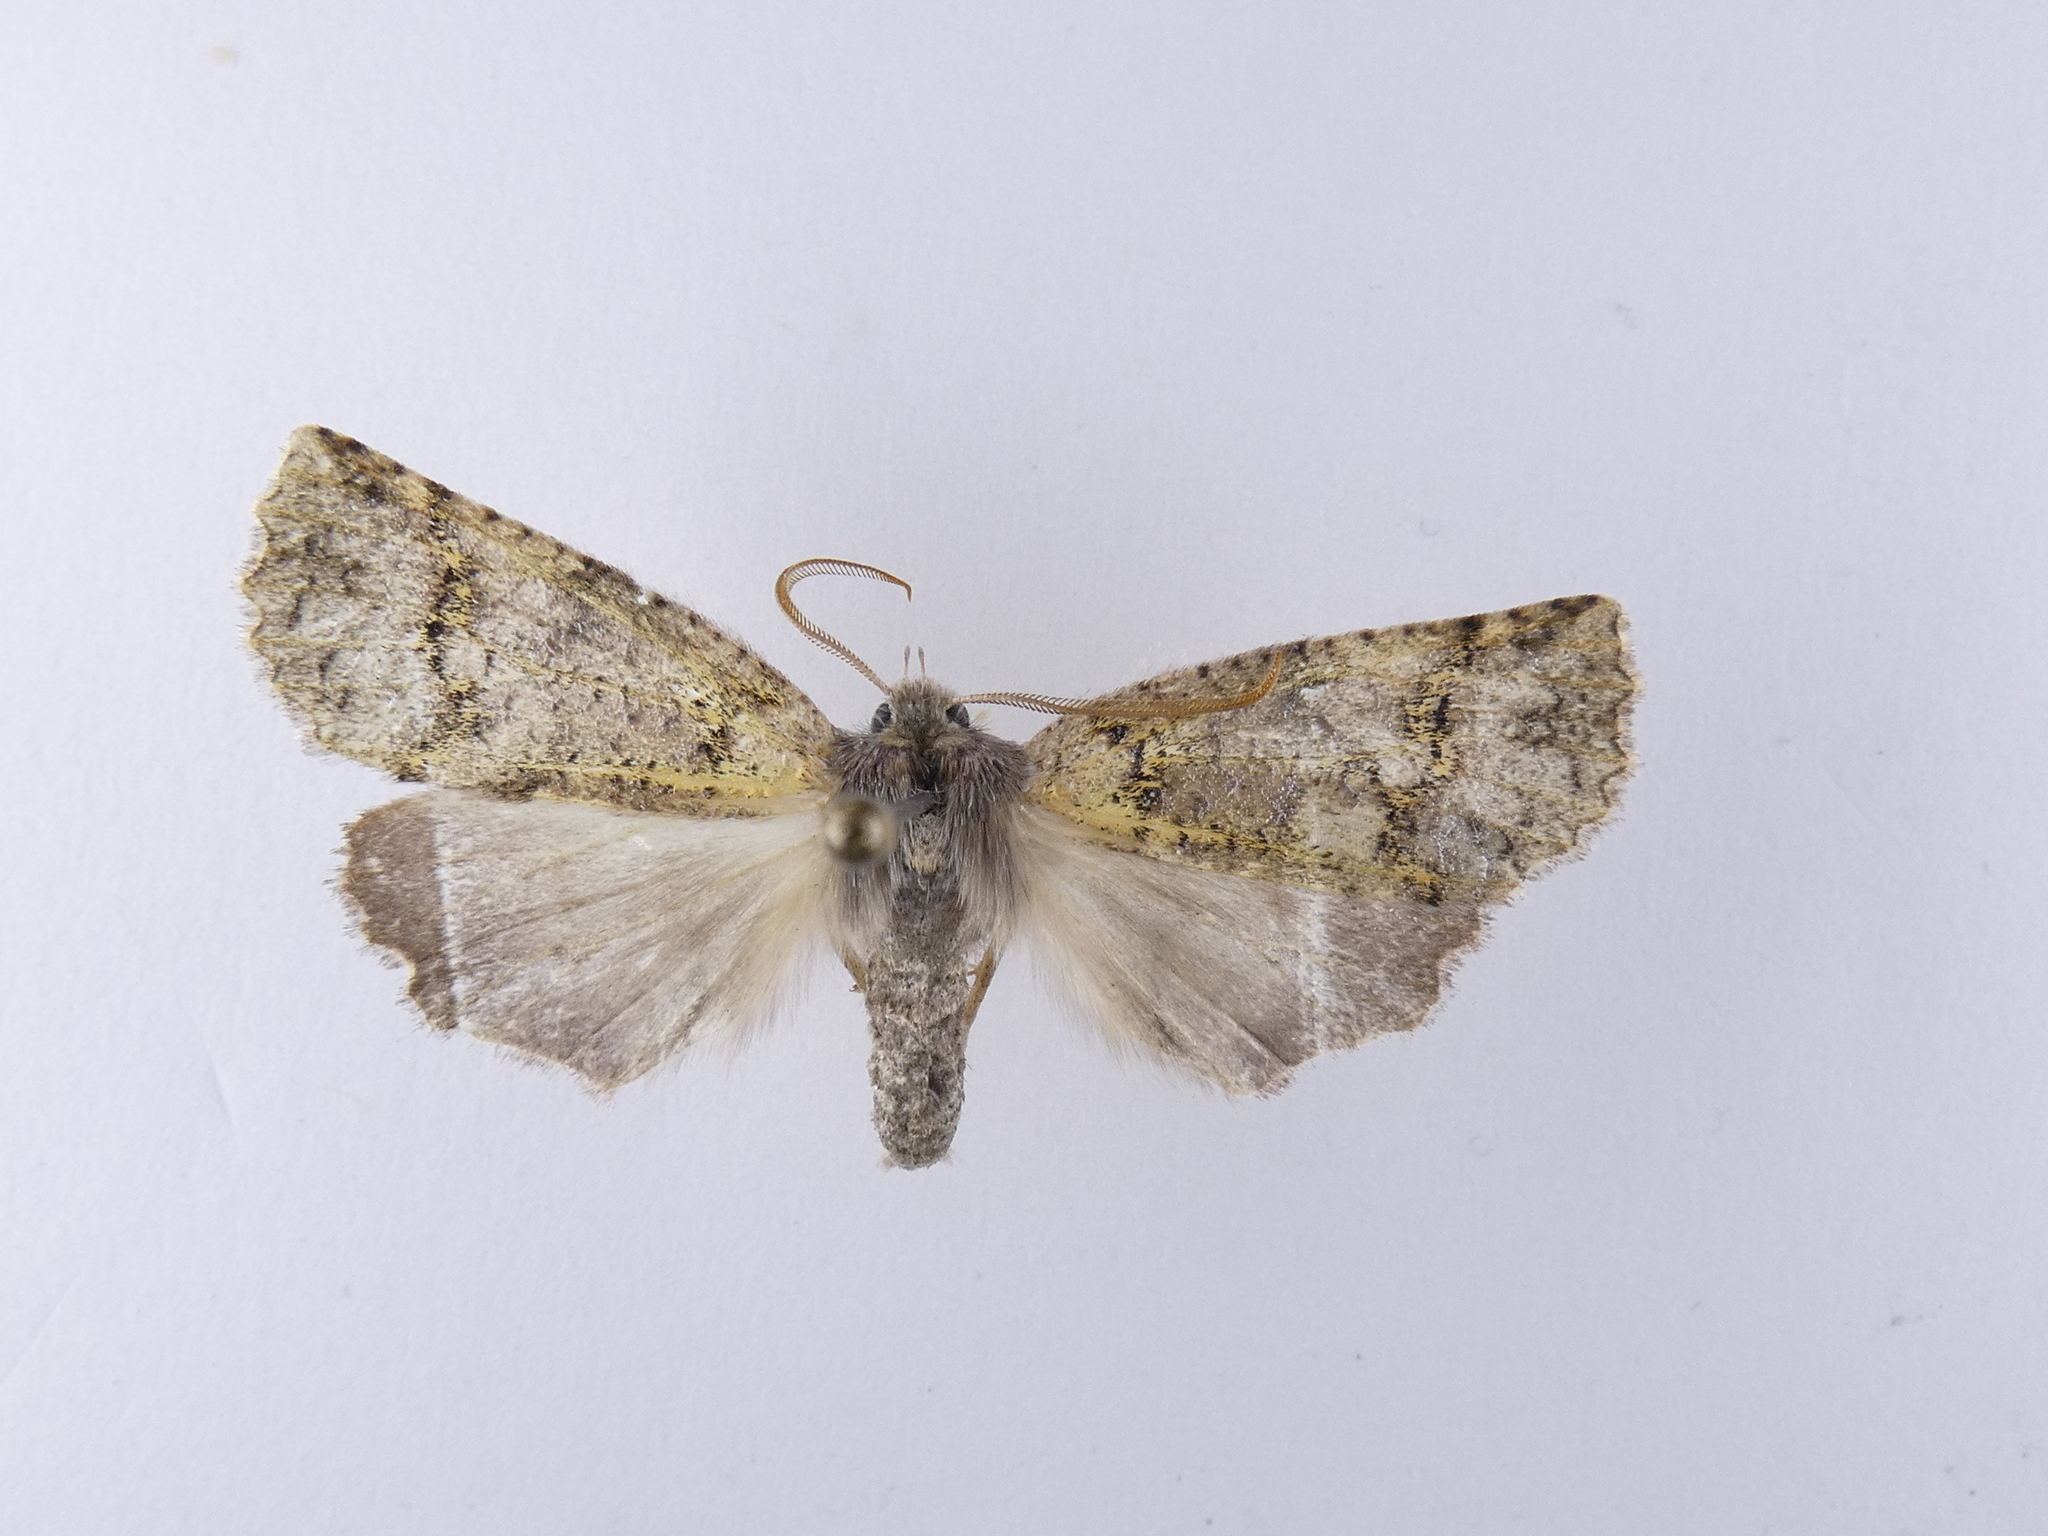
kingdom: Animalia
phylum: Arthropoda
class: Insecta
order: Lepidoptera
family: Geometridae
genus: Declana
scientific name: Declana floccosa
